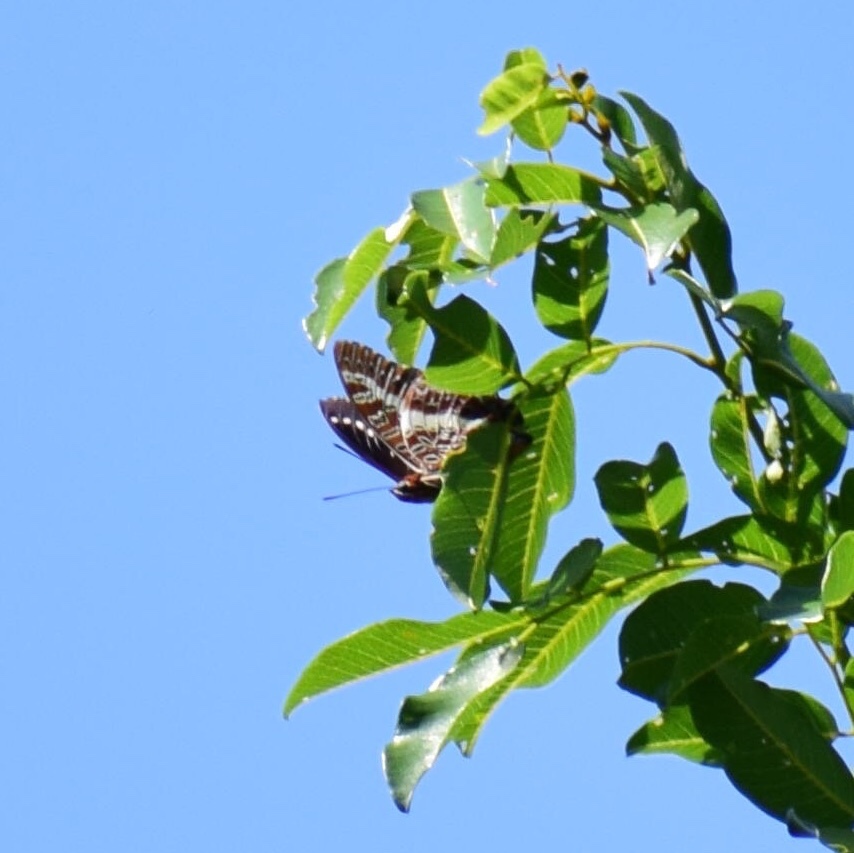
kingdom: Animalia
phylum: Arthropoda
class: Insecta
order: Lepidoptera
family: Nymphalidae
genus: Charaxes
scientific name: Charaxes brutus
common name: White-barred charaxes
